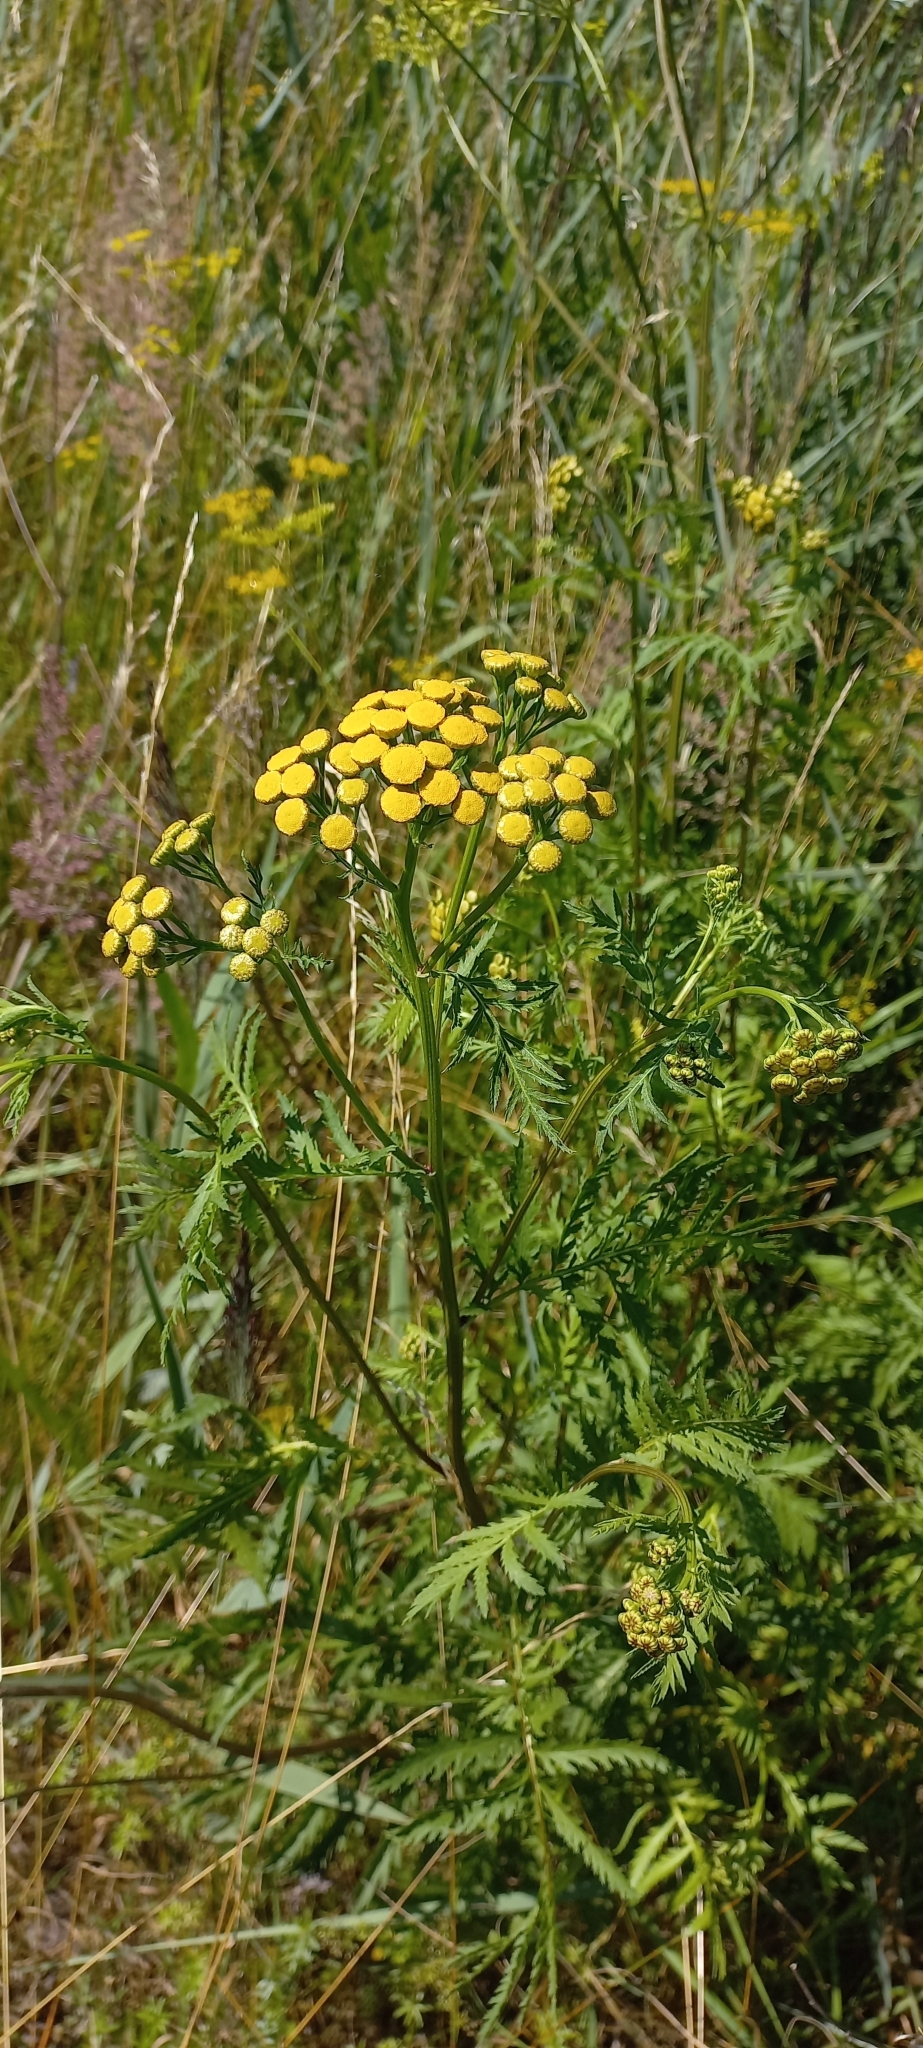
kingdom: Plantae
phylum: Tracheophyta
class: Magnoliopsida
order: Asterales
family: Asteraceae
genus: Tanacetum
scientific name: Tanacetum vulgare
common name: Common tansy
